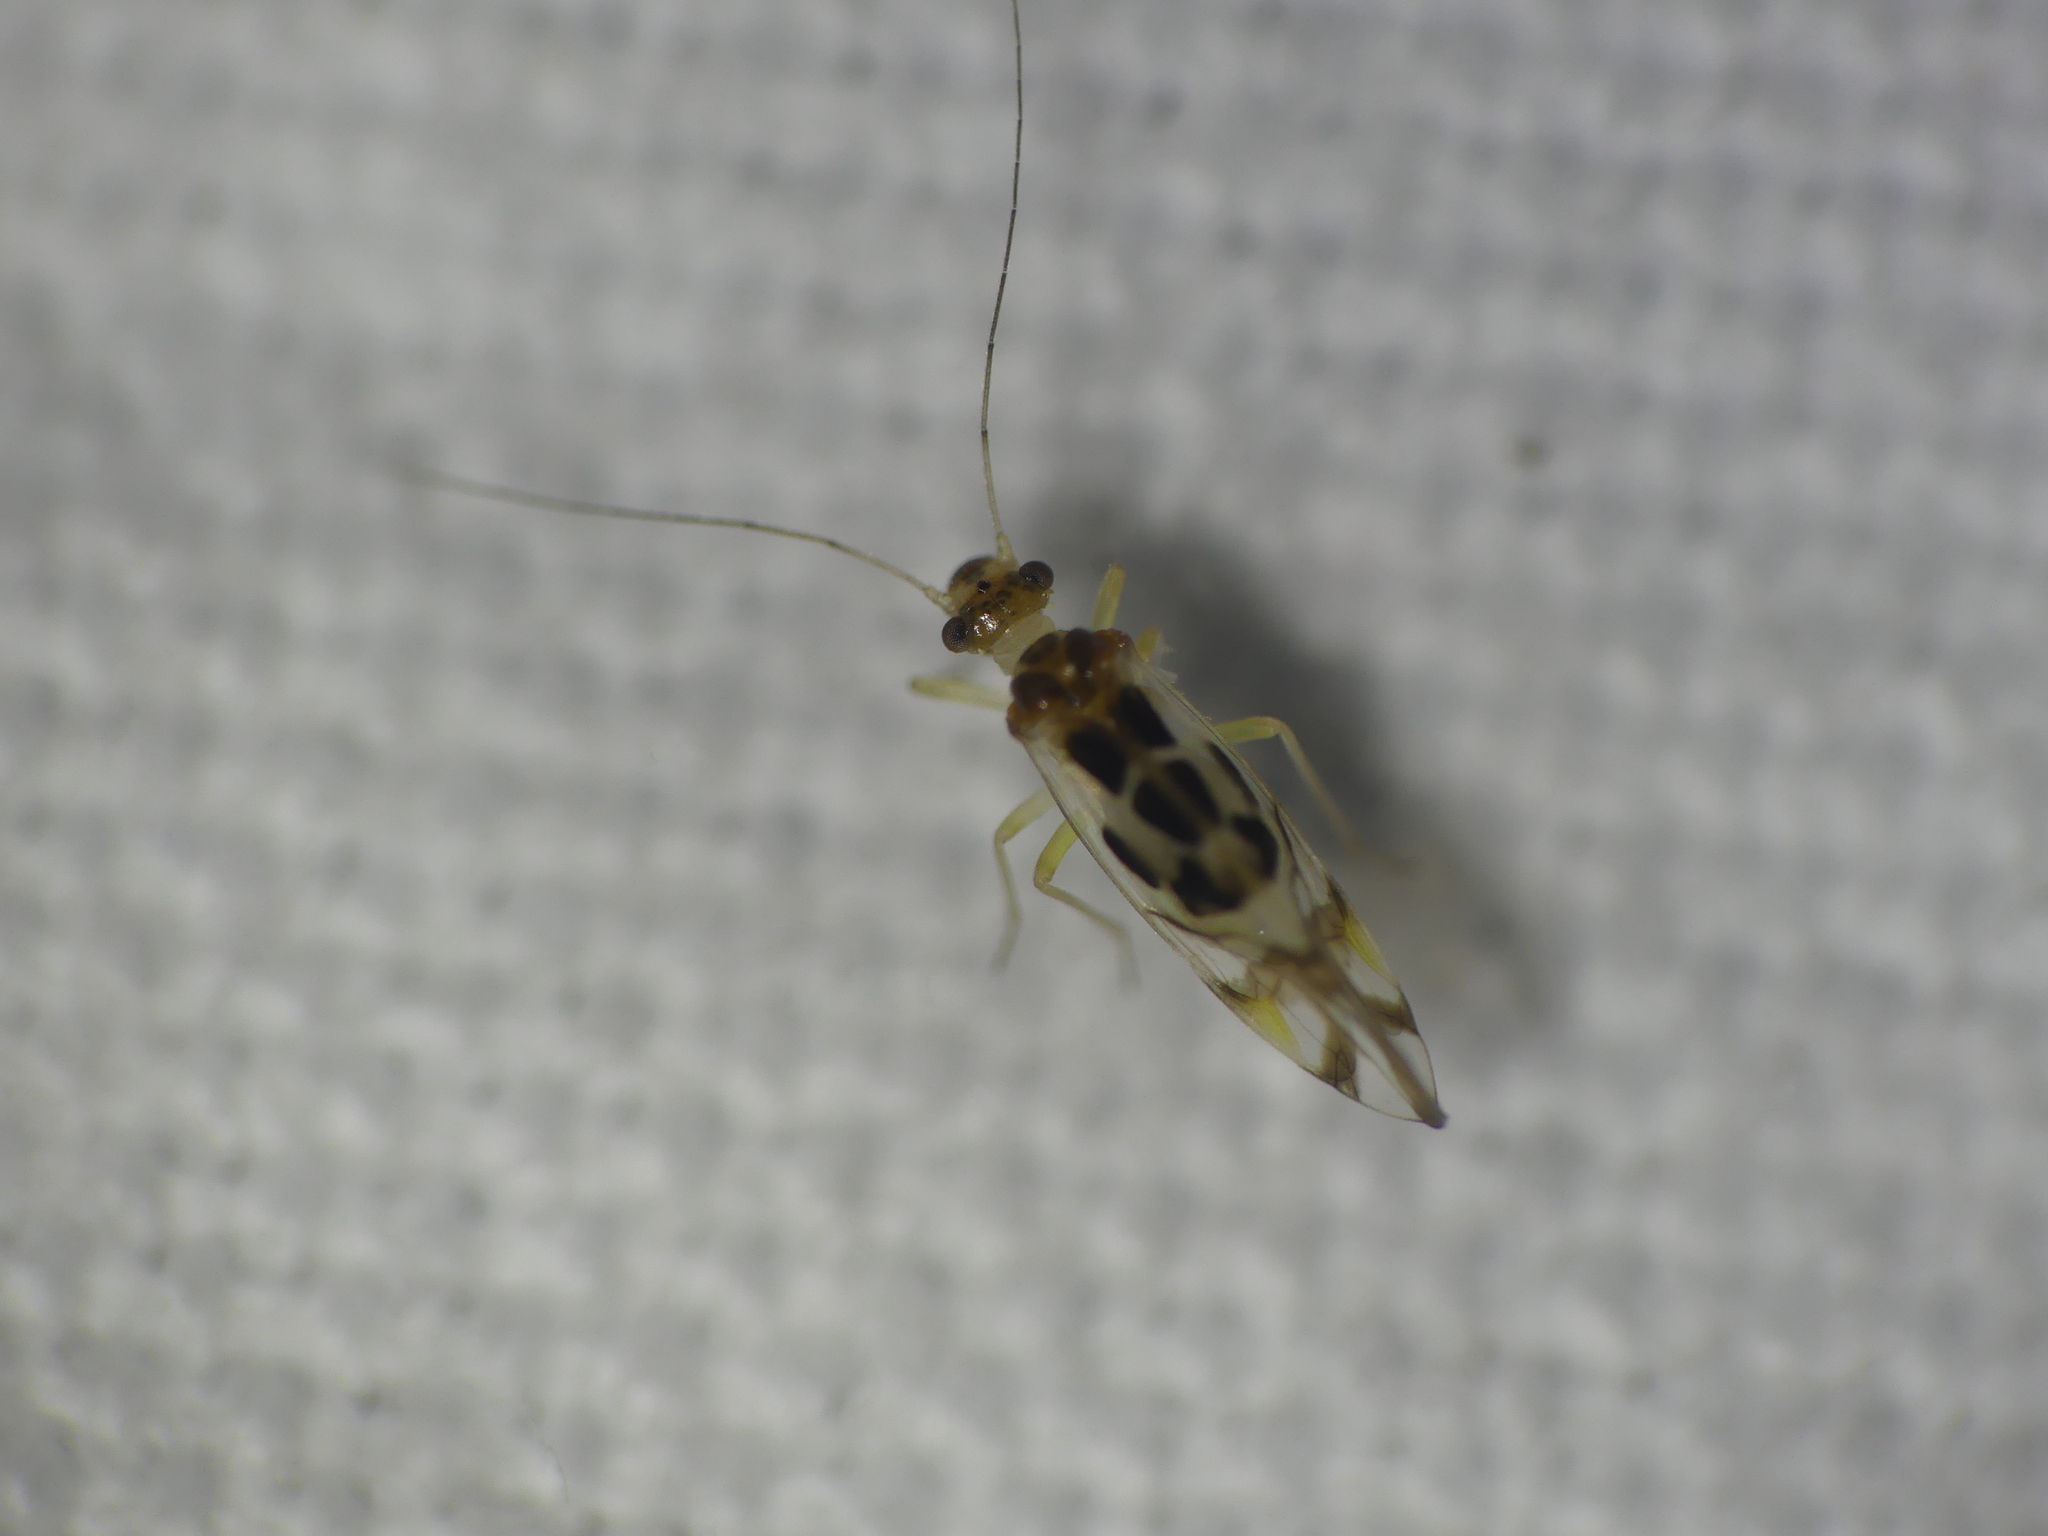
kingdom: Animalia
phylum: Arthropoda
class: Insecta
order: Psocodea
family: Stenopsocidae
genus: Graphopsocus
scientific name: Graphopsocus cruciatus
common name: Lizard bark louse
